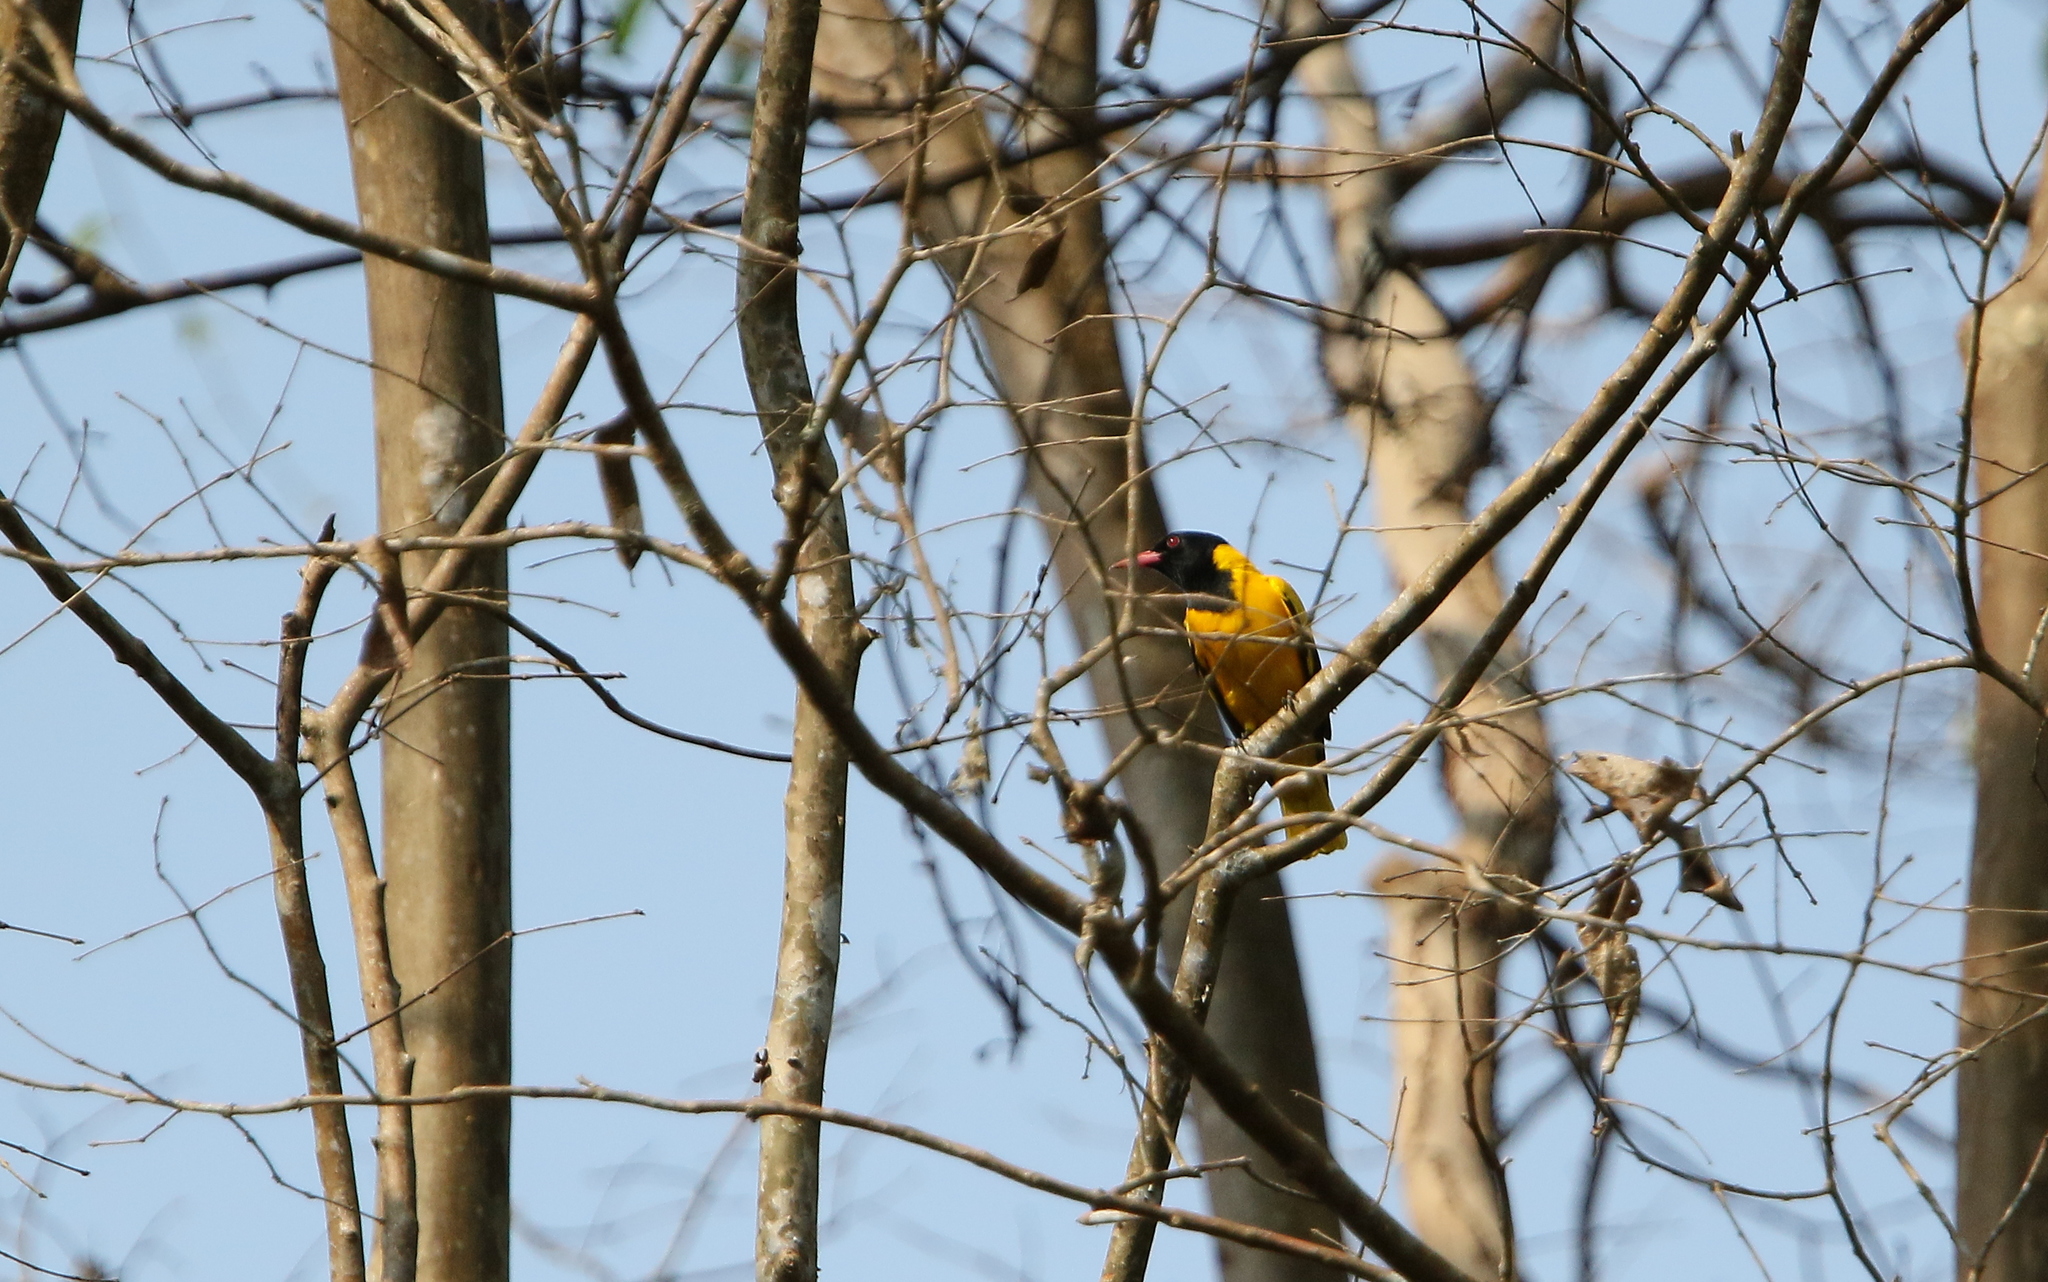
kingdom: Animalia
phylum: Chordata
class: Aves
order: Passeriformes
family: Oriolidae
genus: Oriolus
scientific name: Oriolus xanthornus
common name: Black-hooded oriole
